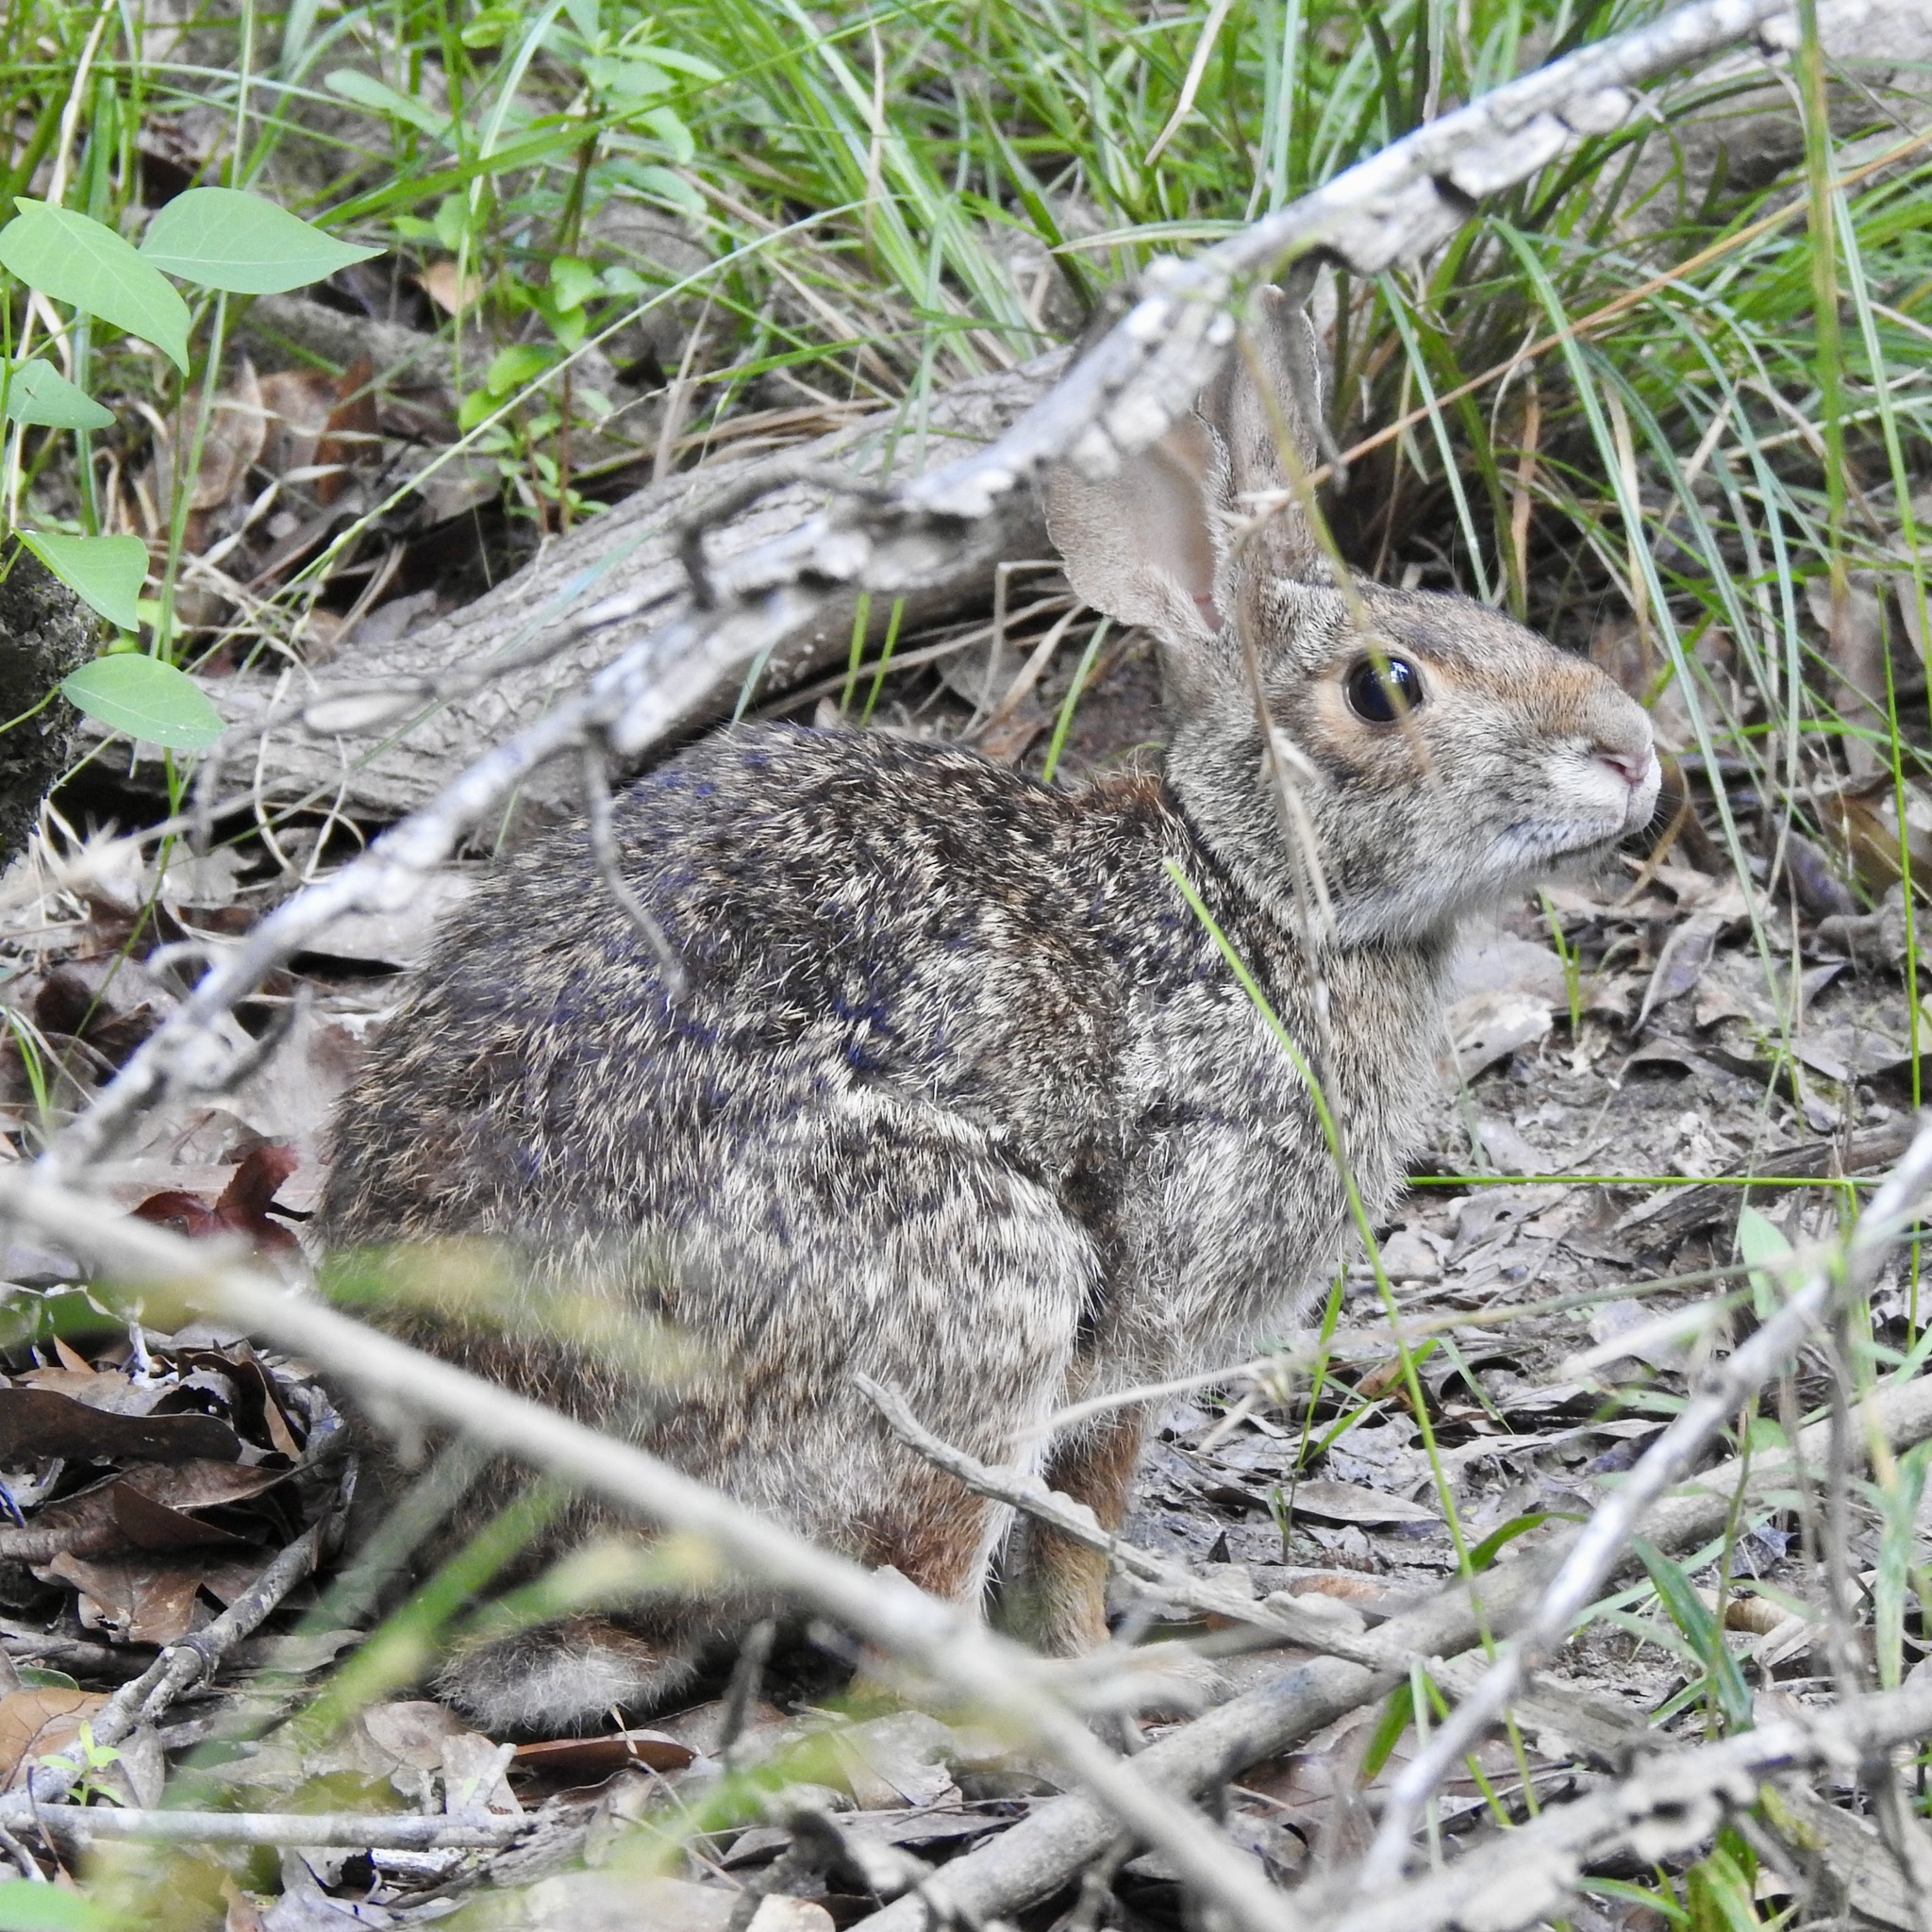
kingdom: Animalia
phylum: Chordata
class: Mammalia
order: Lagomorpha
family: Leporidae
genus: Sylvilagus
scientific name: Sylvilagus aquaticus
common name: Swamp rabbit
